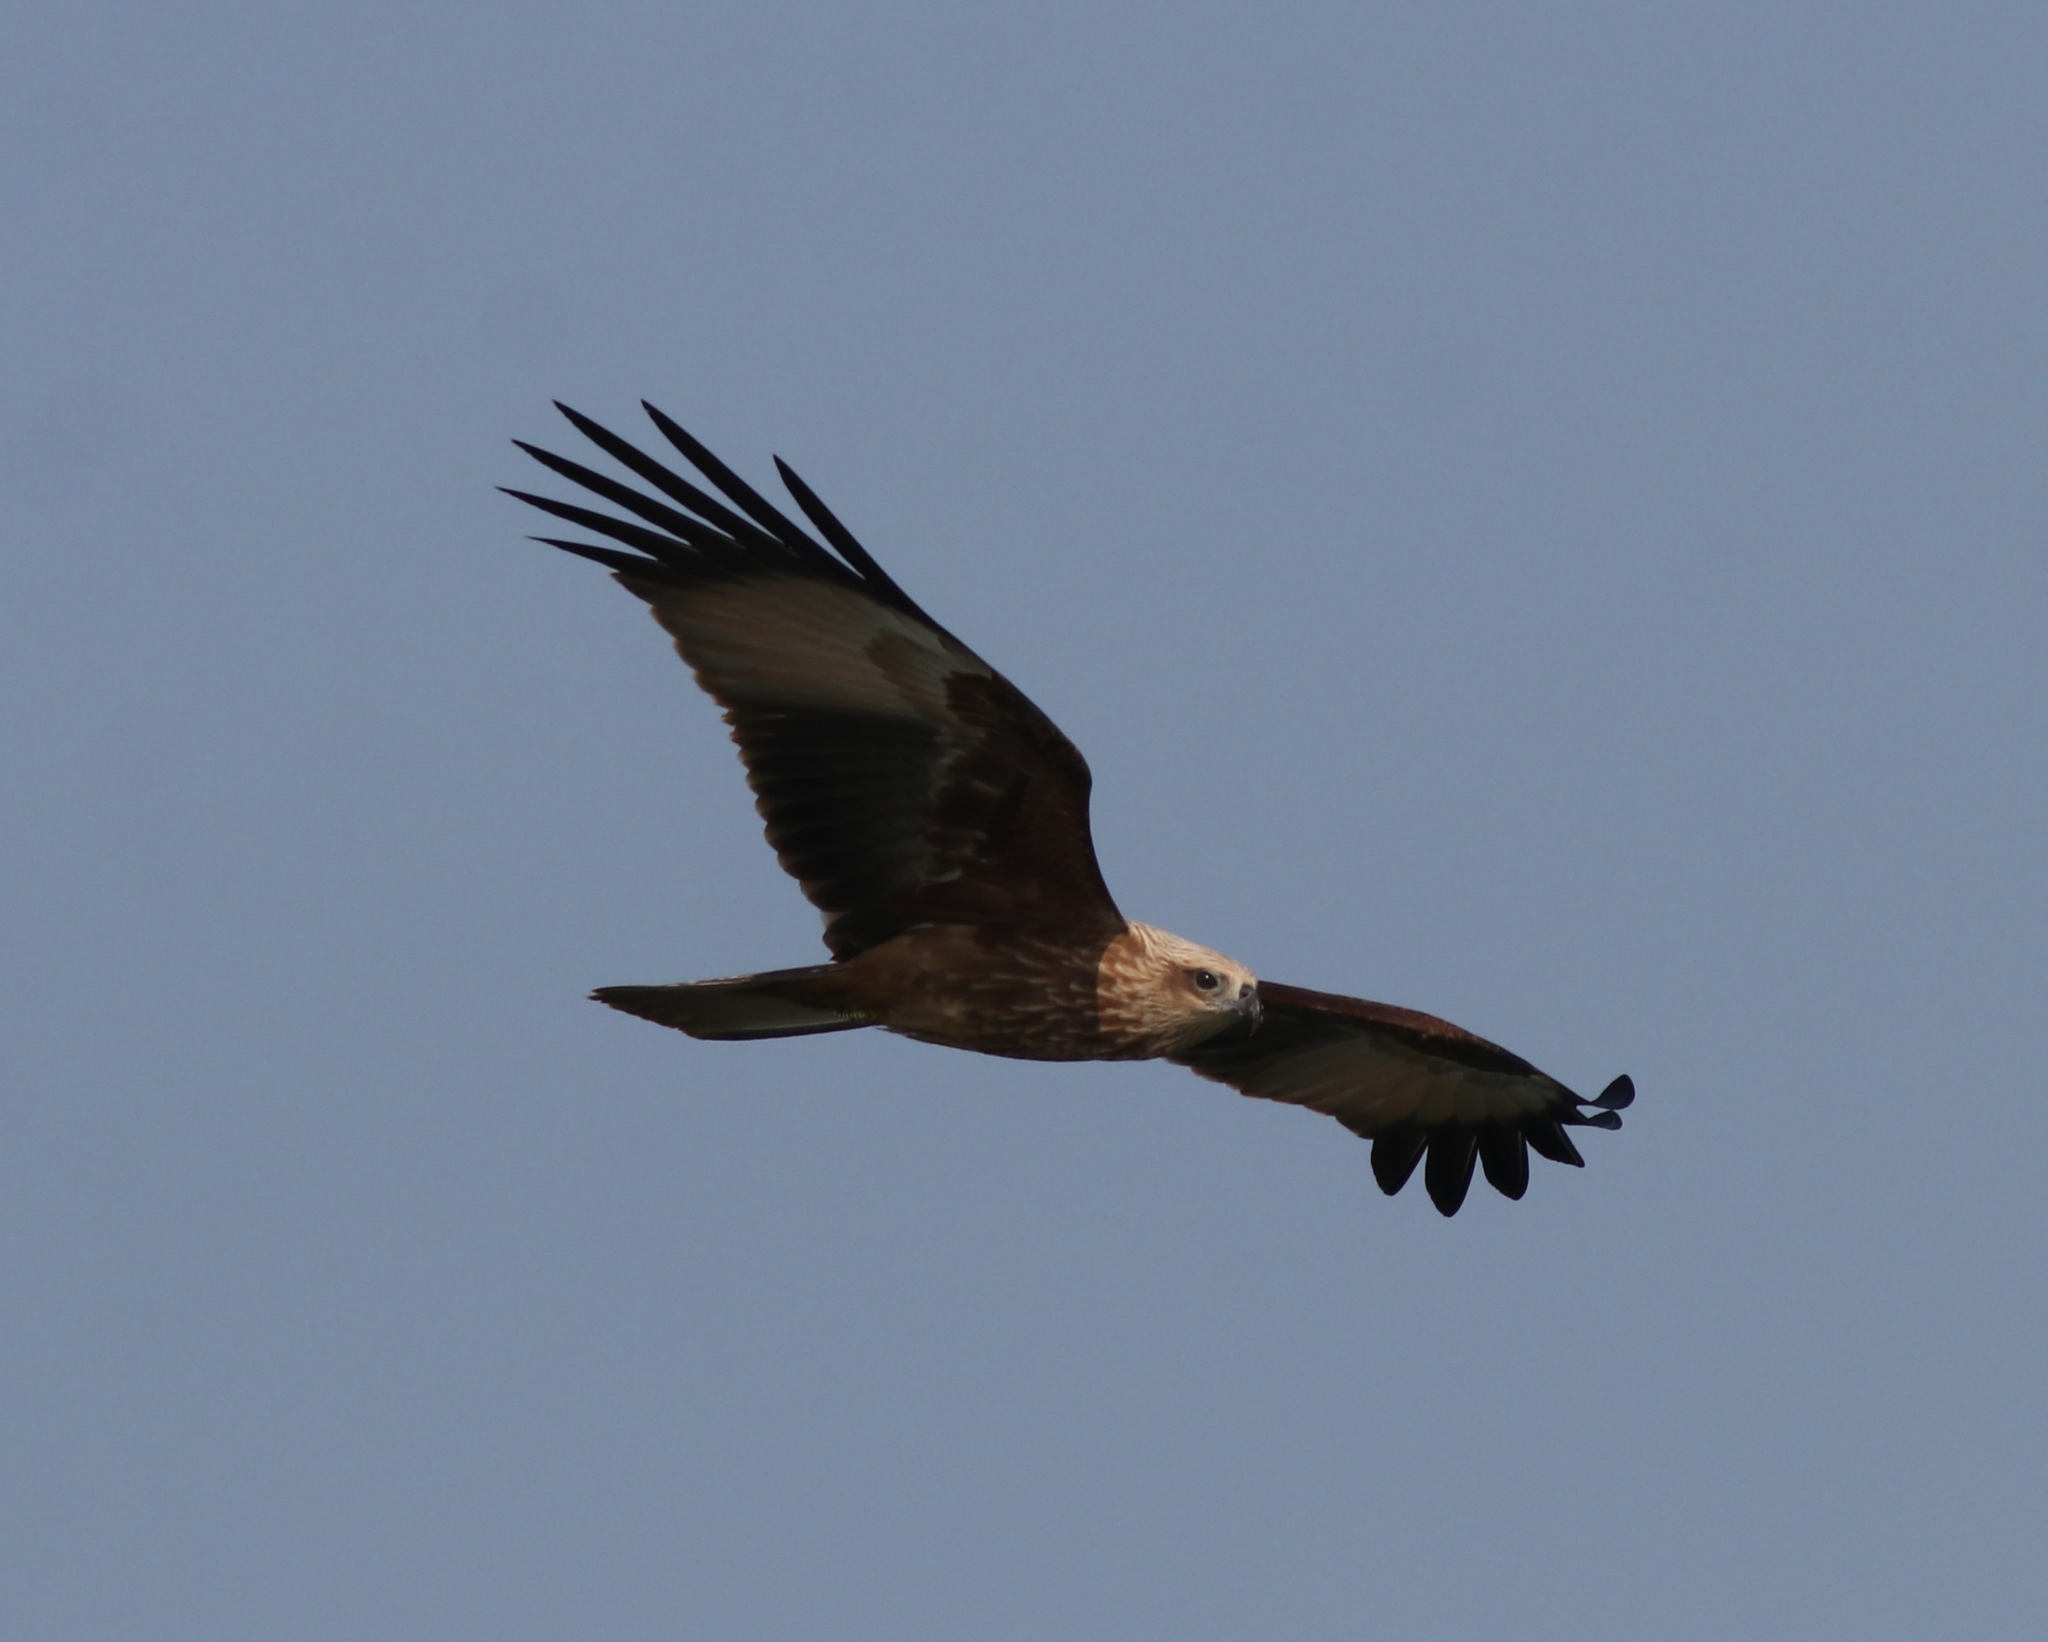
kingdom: Animalia
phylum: Chordata
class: Aves
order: Accipitriformes
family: Accipitridae
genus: Haliastur
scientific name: Haliastur indus
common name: Brahminy kite
